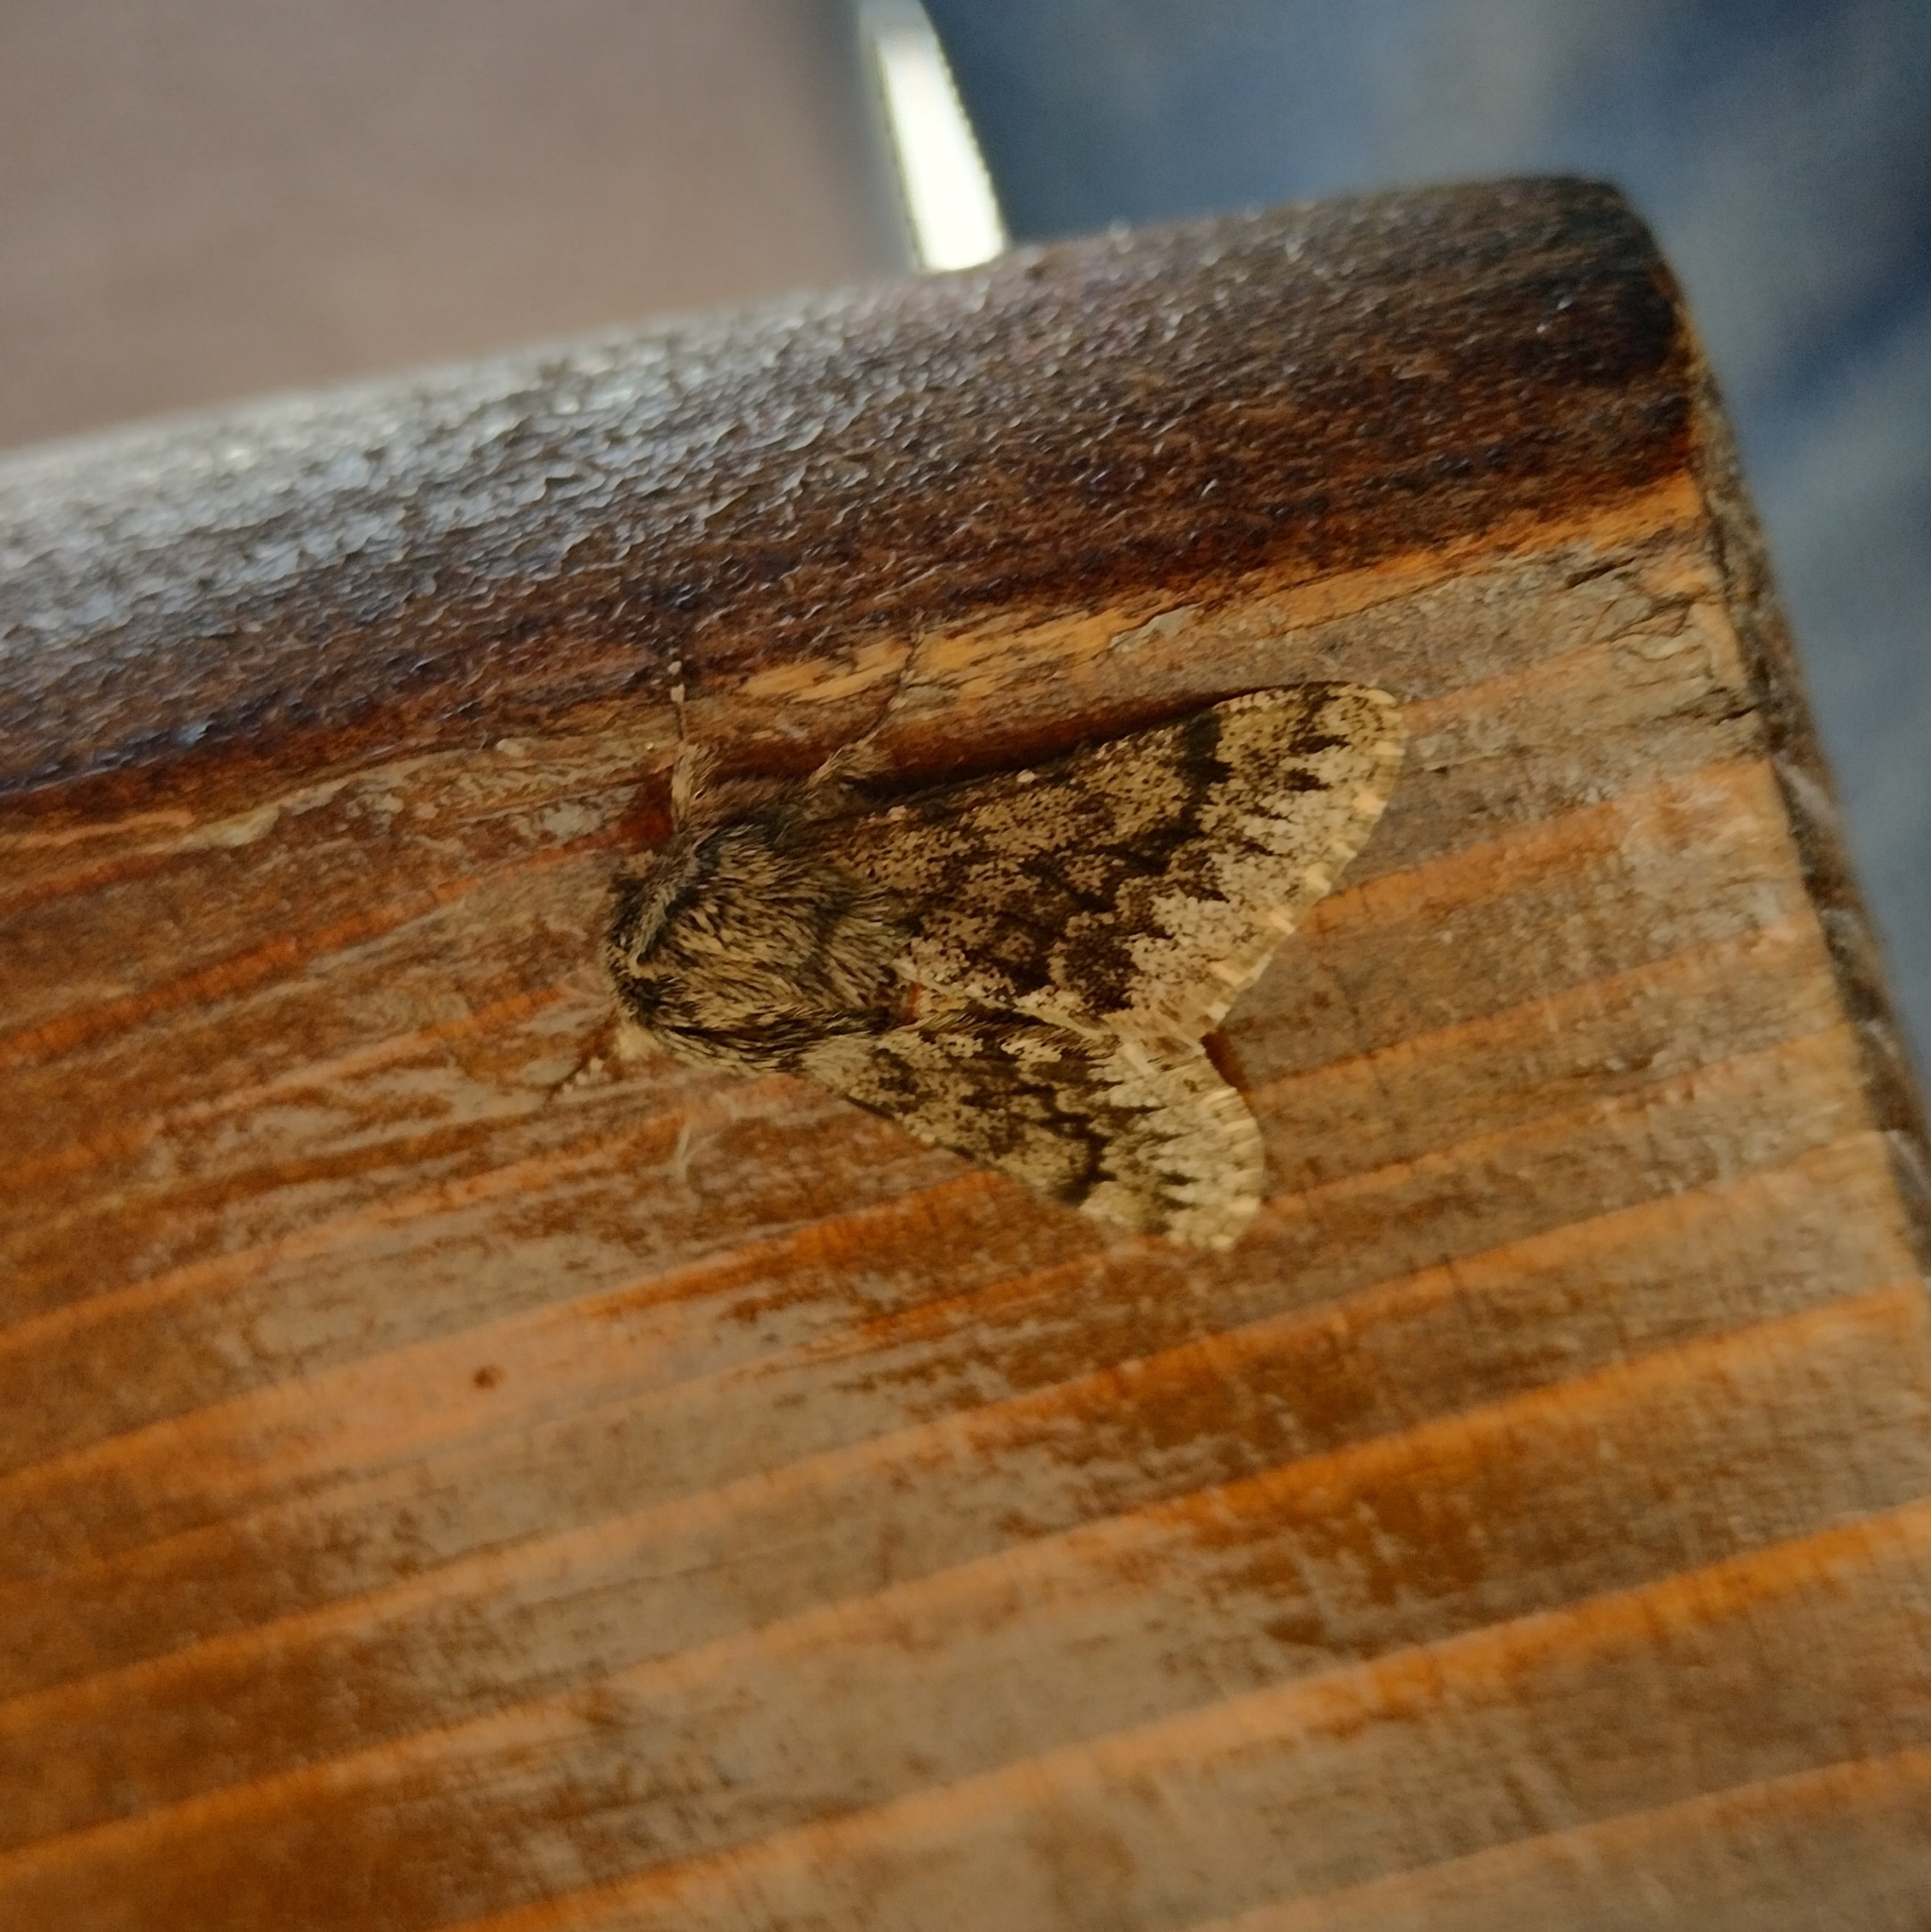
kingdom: Animalia
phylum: Arthropoda
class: Insecta
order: Lepidoptera
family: Geometridae
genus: Apocheima
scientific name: Apocheima hispidaria
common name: Small brindled beauty
